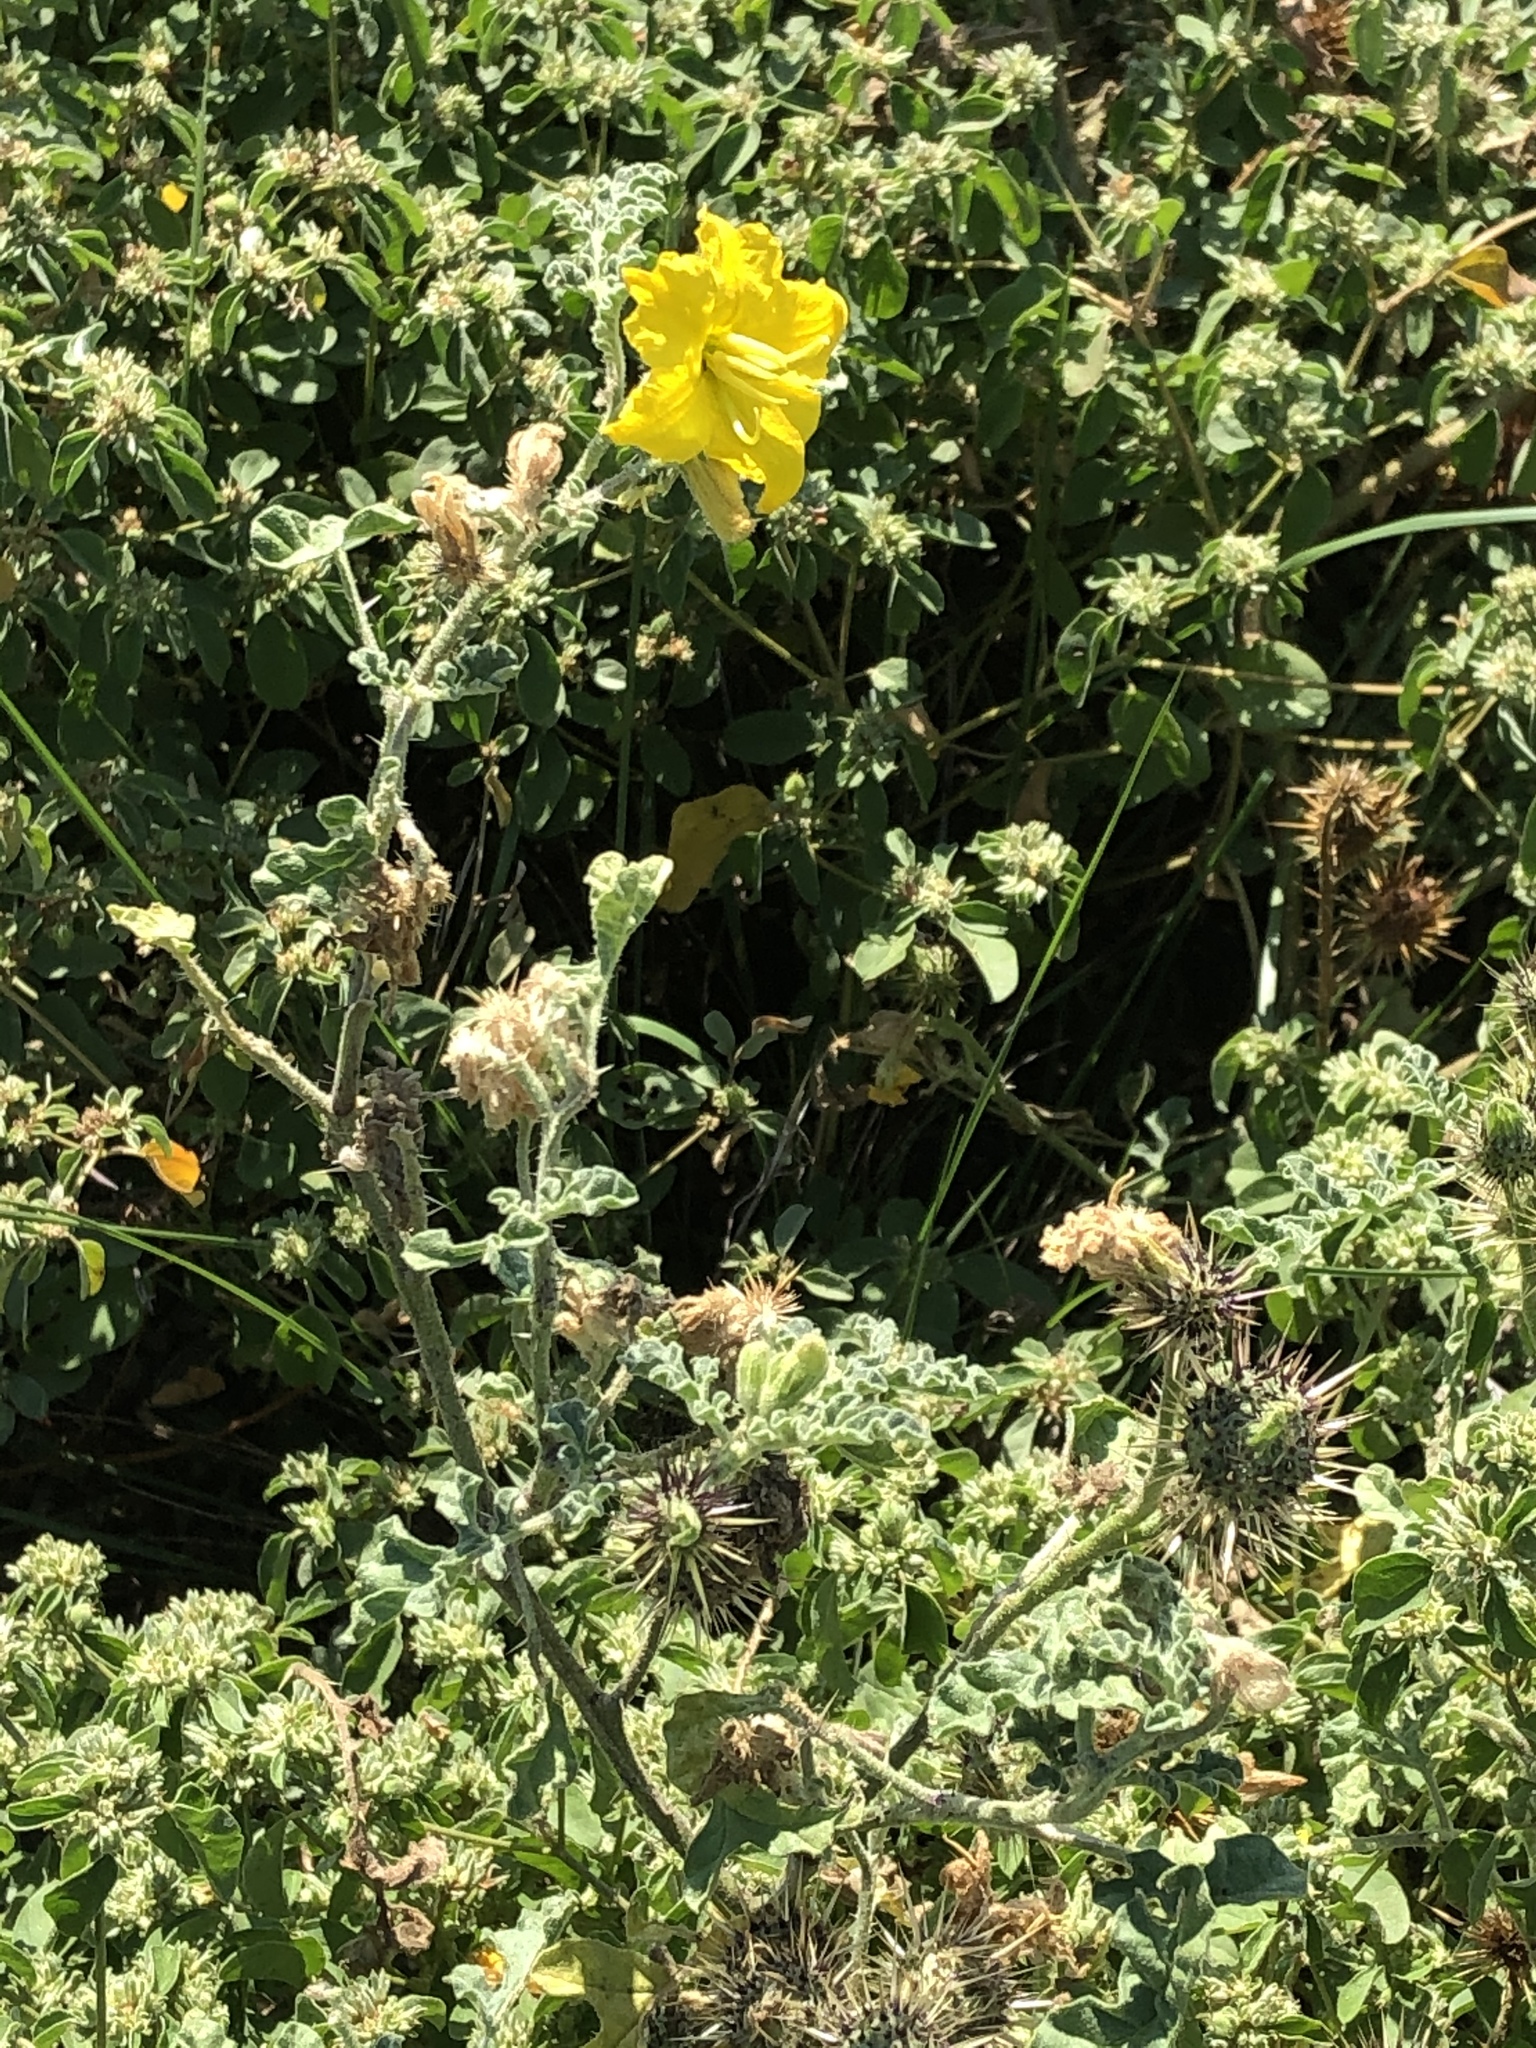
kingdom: Plantae
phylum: Tracheophyta
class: Magnoliopsida
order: Solanales
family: Solanaceae
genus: Solanum
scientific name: Solanum angustifolium
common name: Buffalobur nightshade
